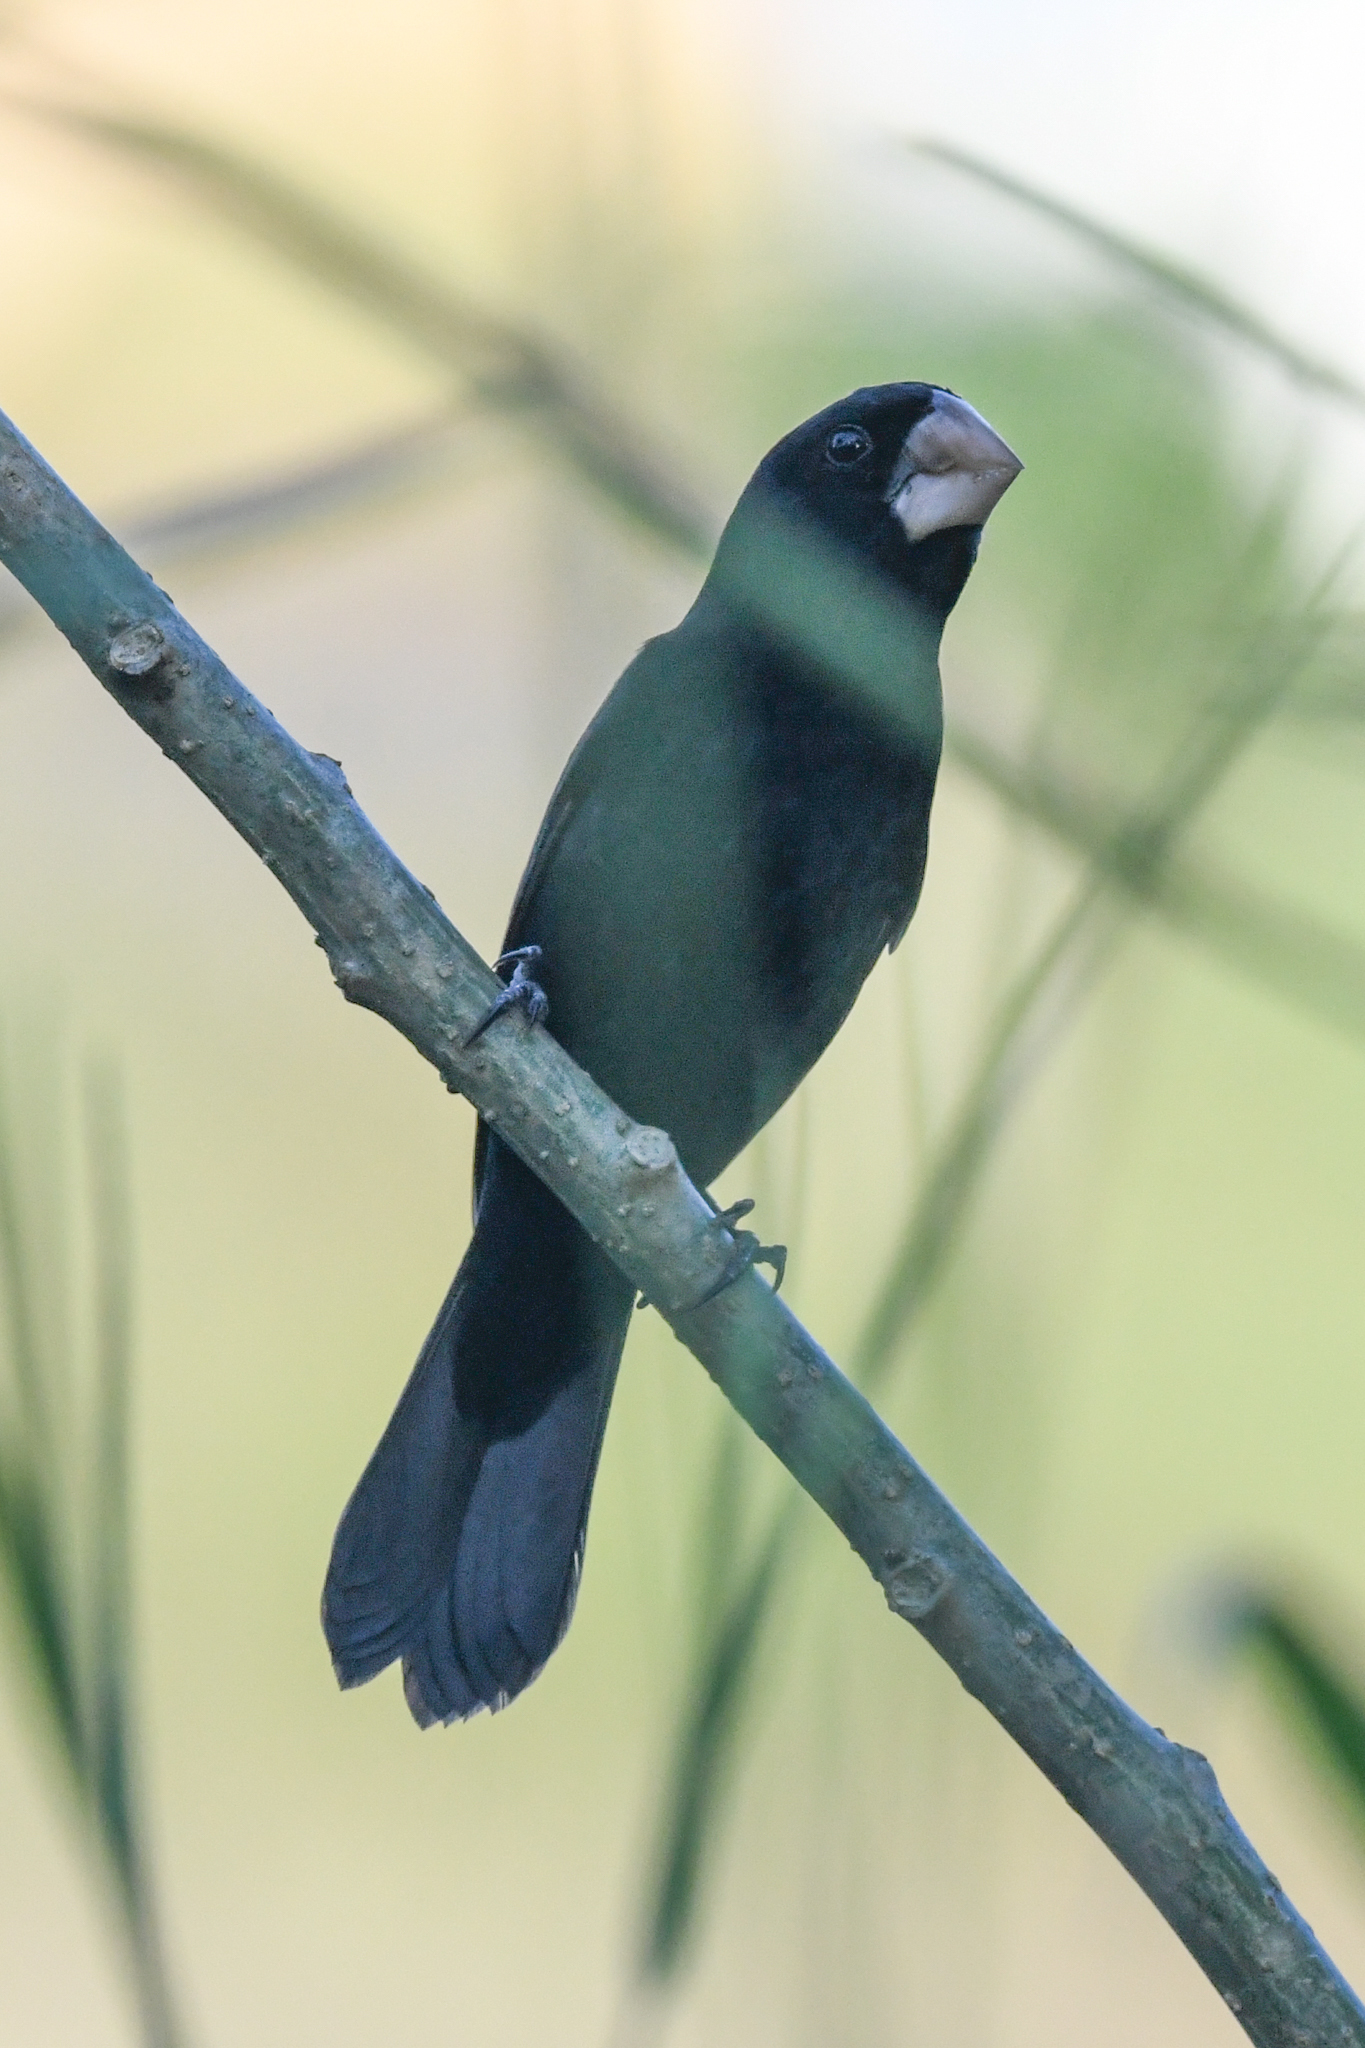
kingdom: Animalia
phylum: Chordata
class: Aves
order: Passeriformes
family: Thraupidae
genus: Sporophila
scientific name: Sporophila nuttingi
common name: Nicaraguan seed-finch
